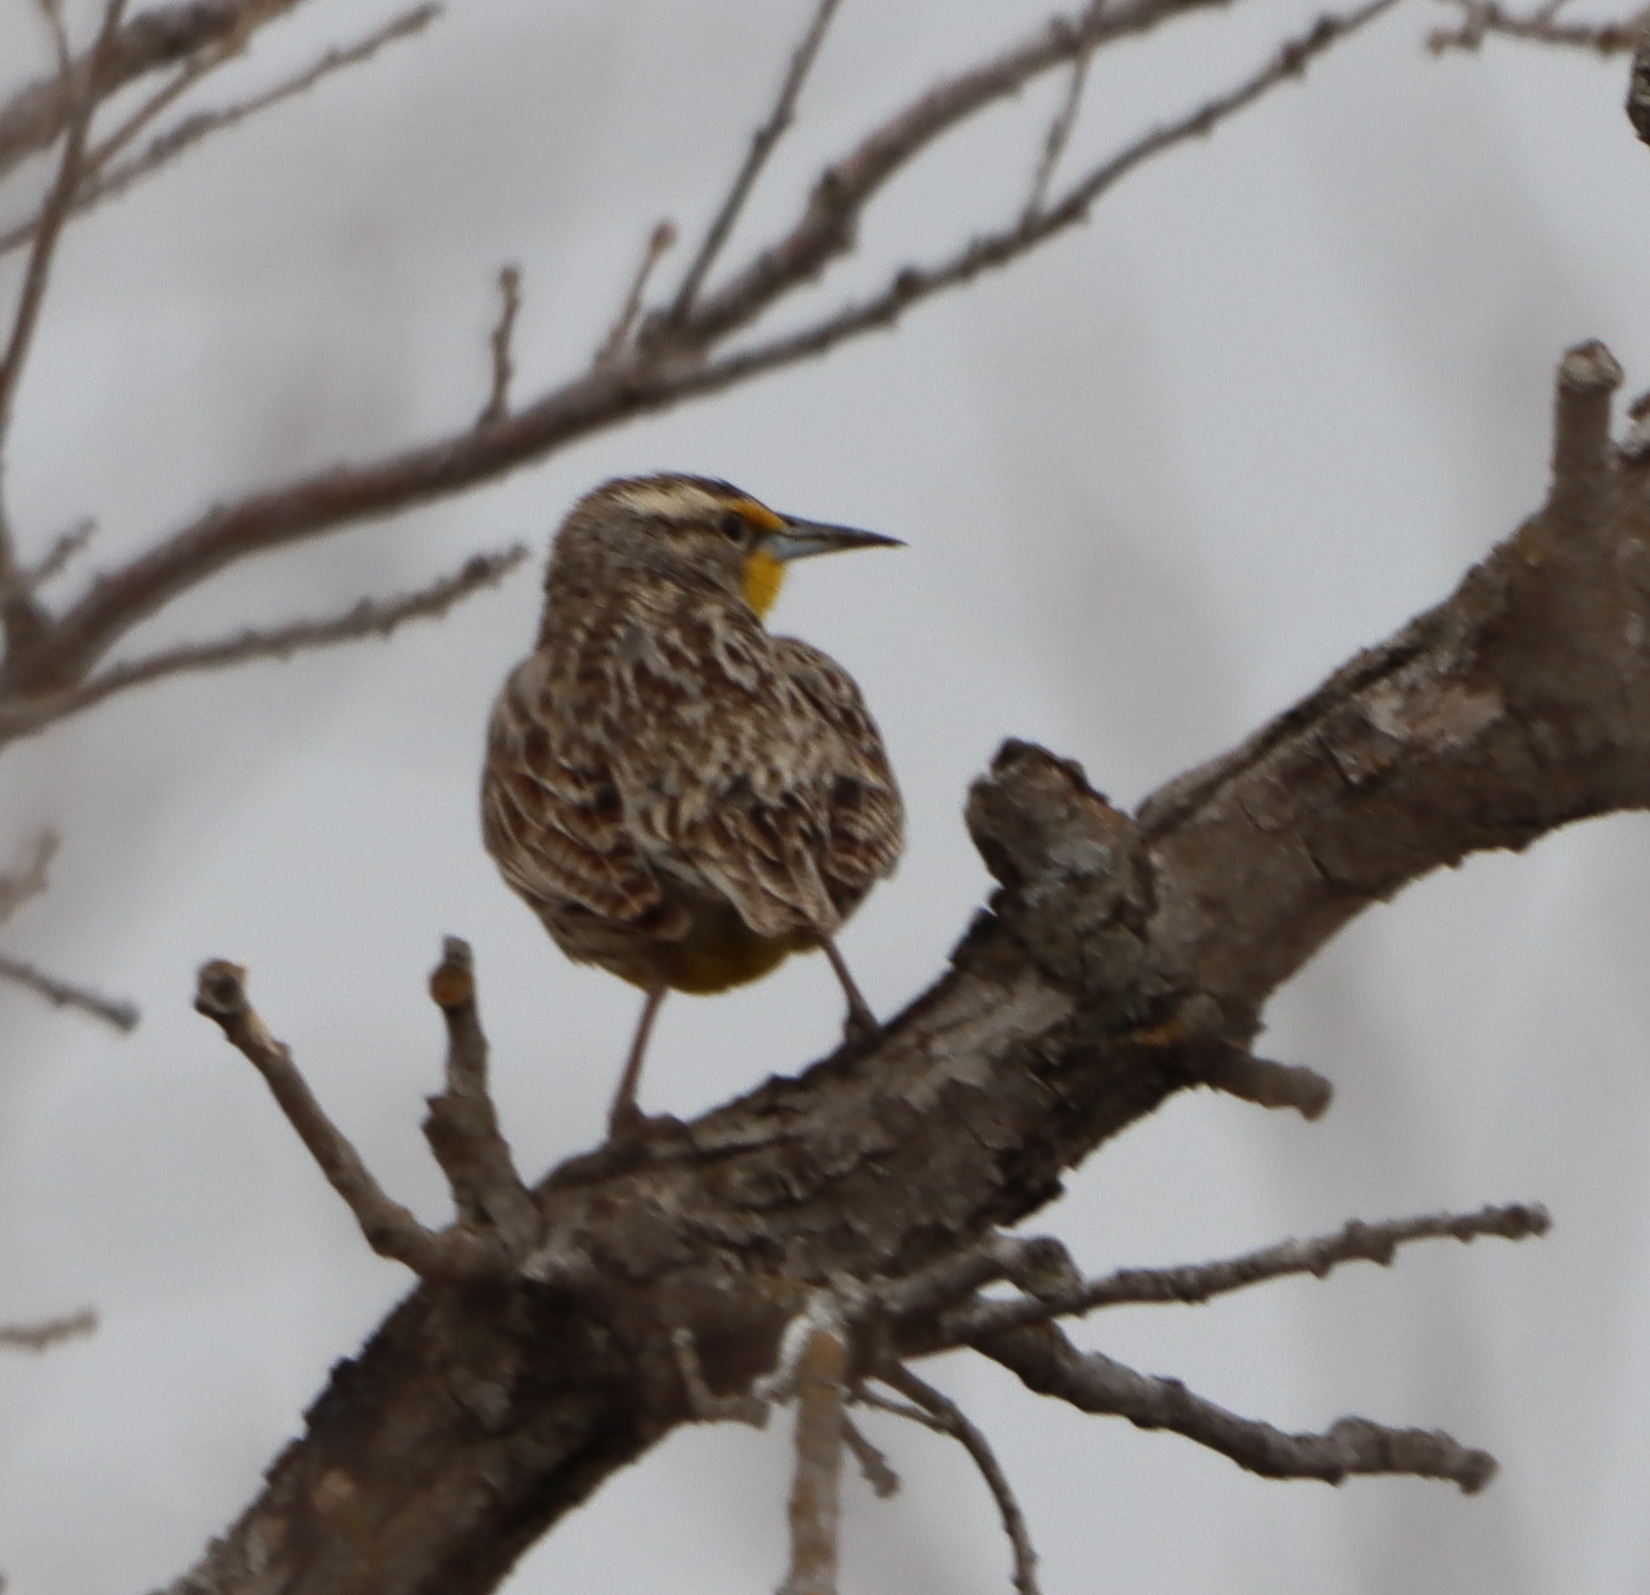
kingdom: Animalia
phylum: Chordata
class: Aves
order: Passeriformes
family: Icteridae
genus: Sturnella
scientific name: Sturnella neglecta
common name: Western meadowlark
